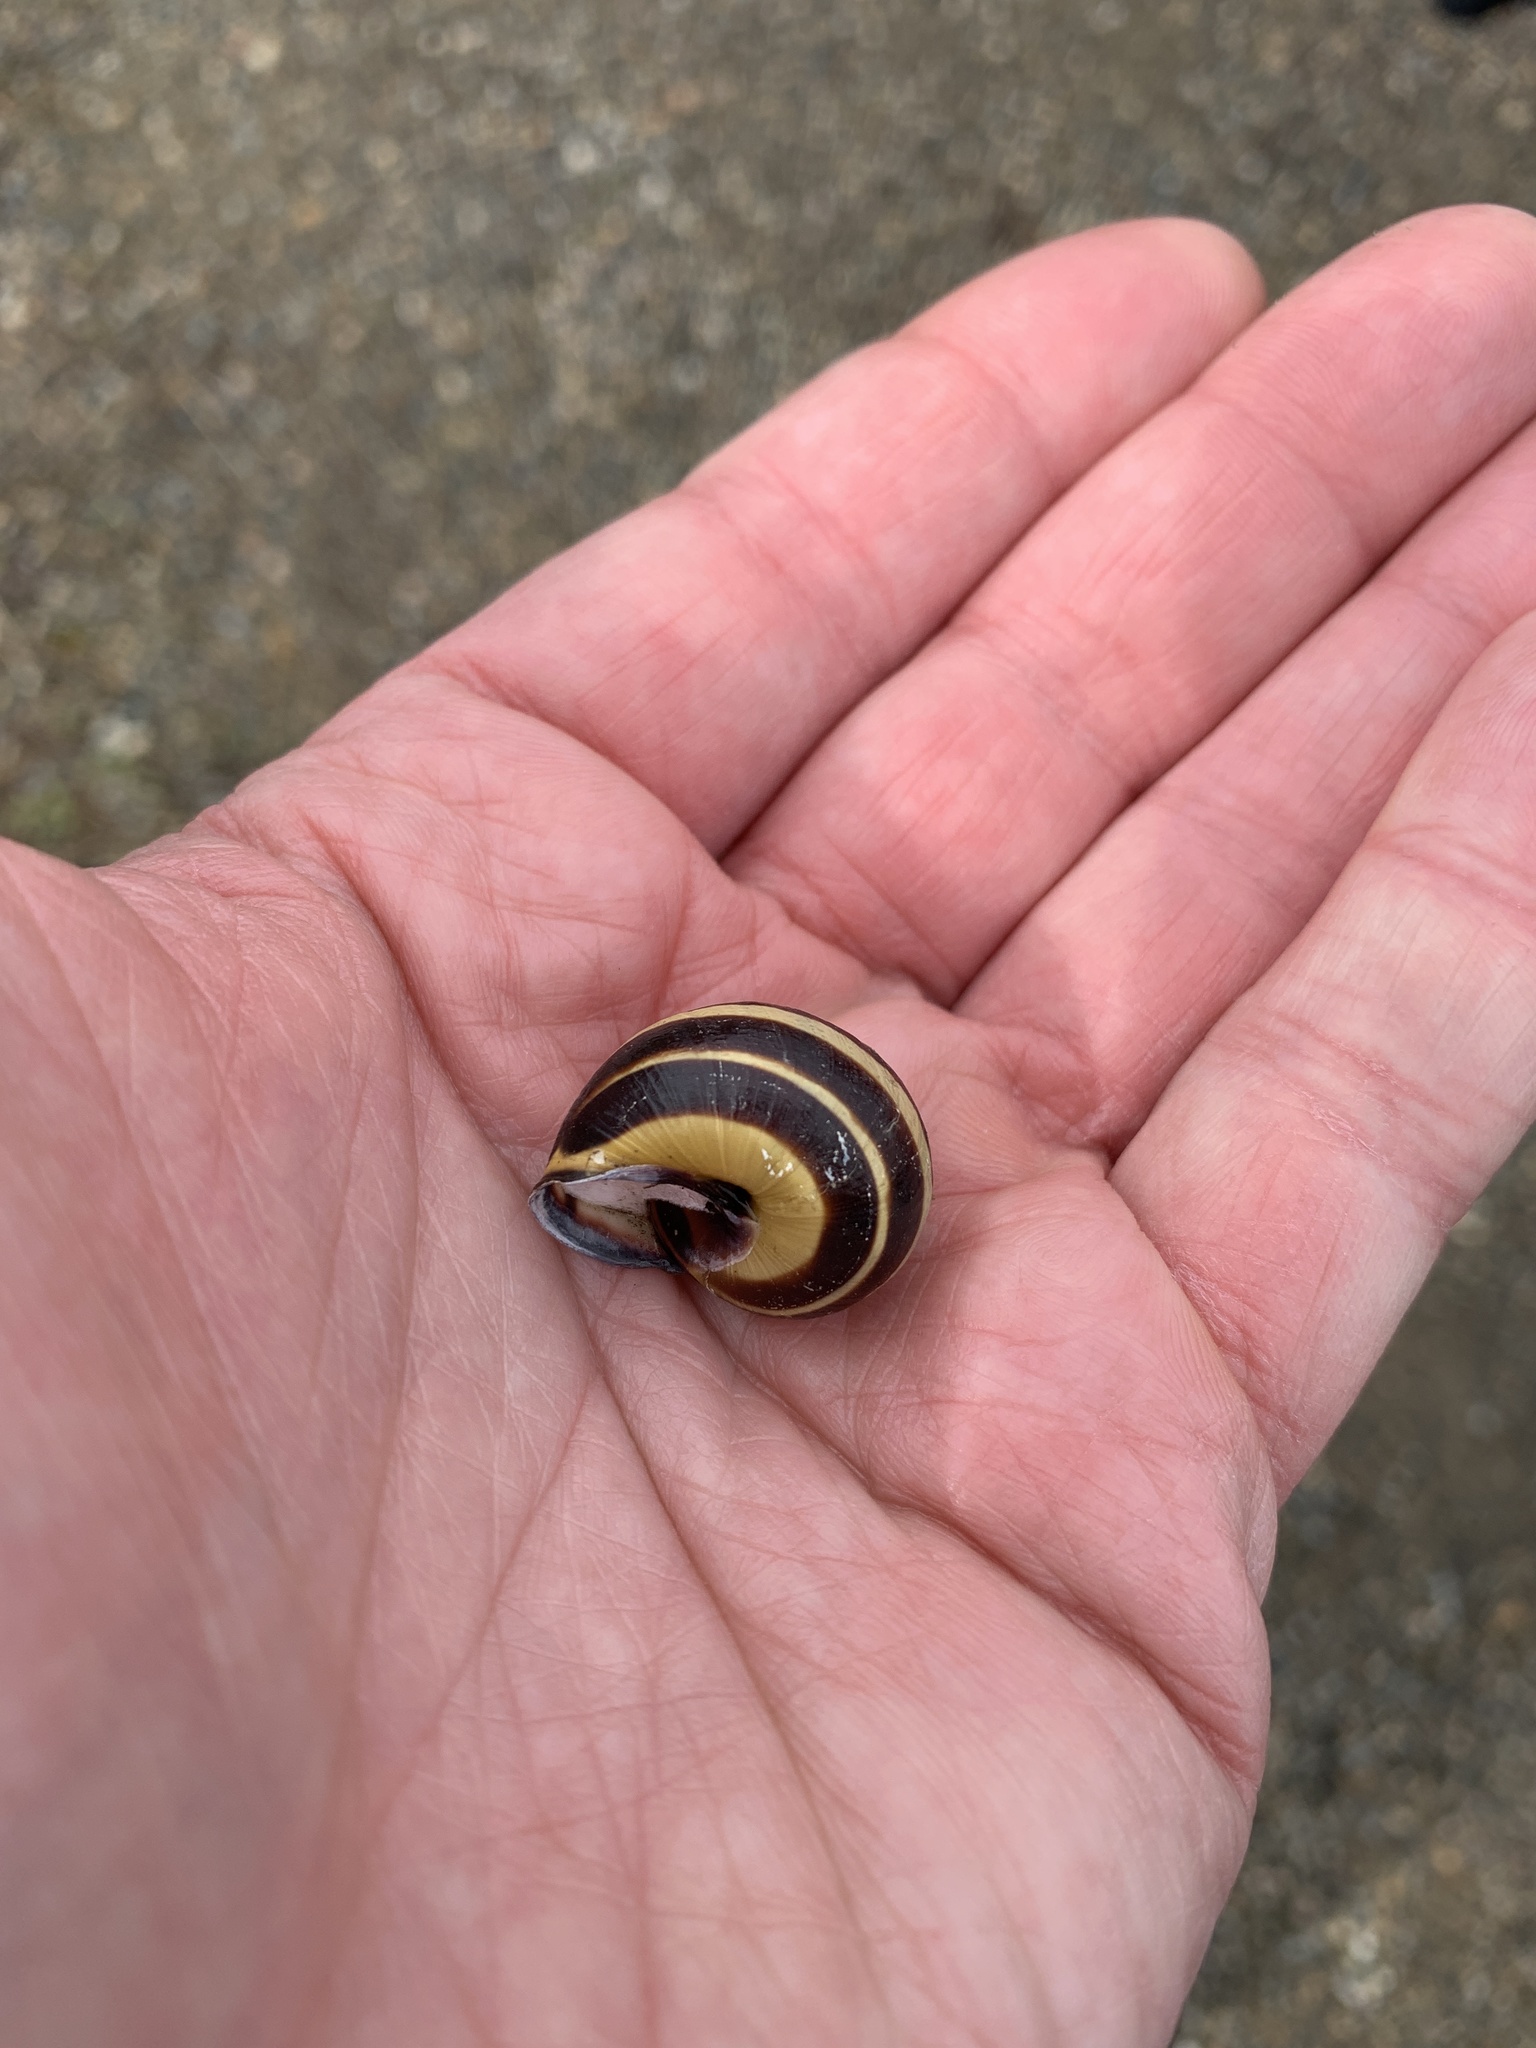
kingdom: Animalia
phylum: Mollusca
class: Gastropoda
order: Stylommatophora
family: Helicidae
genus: Cepaea
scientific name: Cepaea nemoralis
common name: Grovesnail
